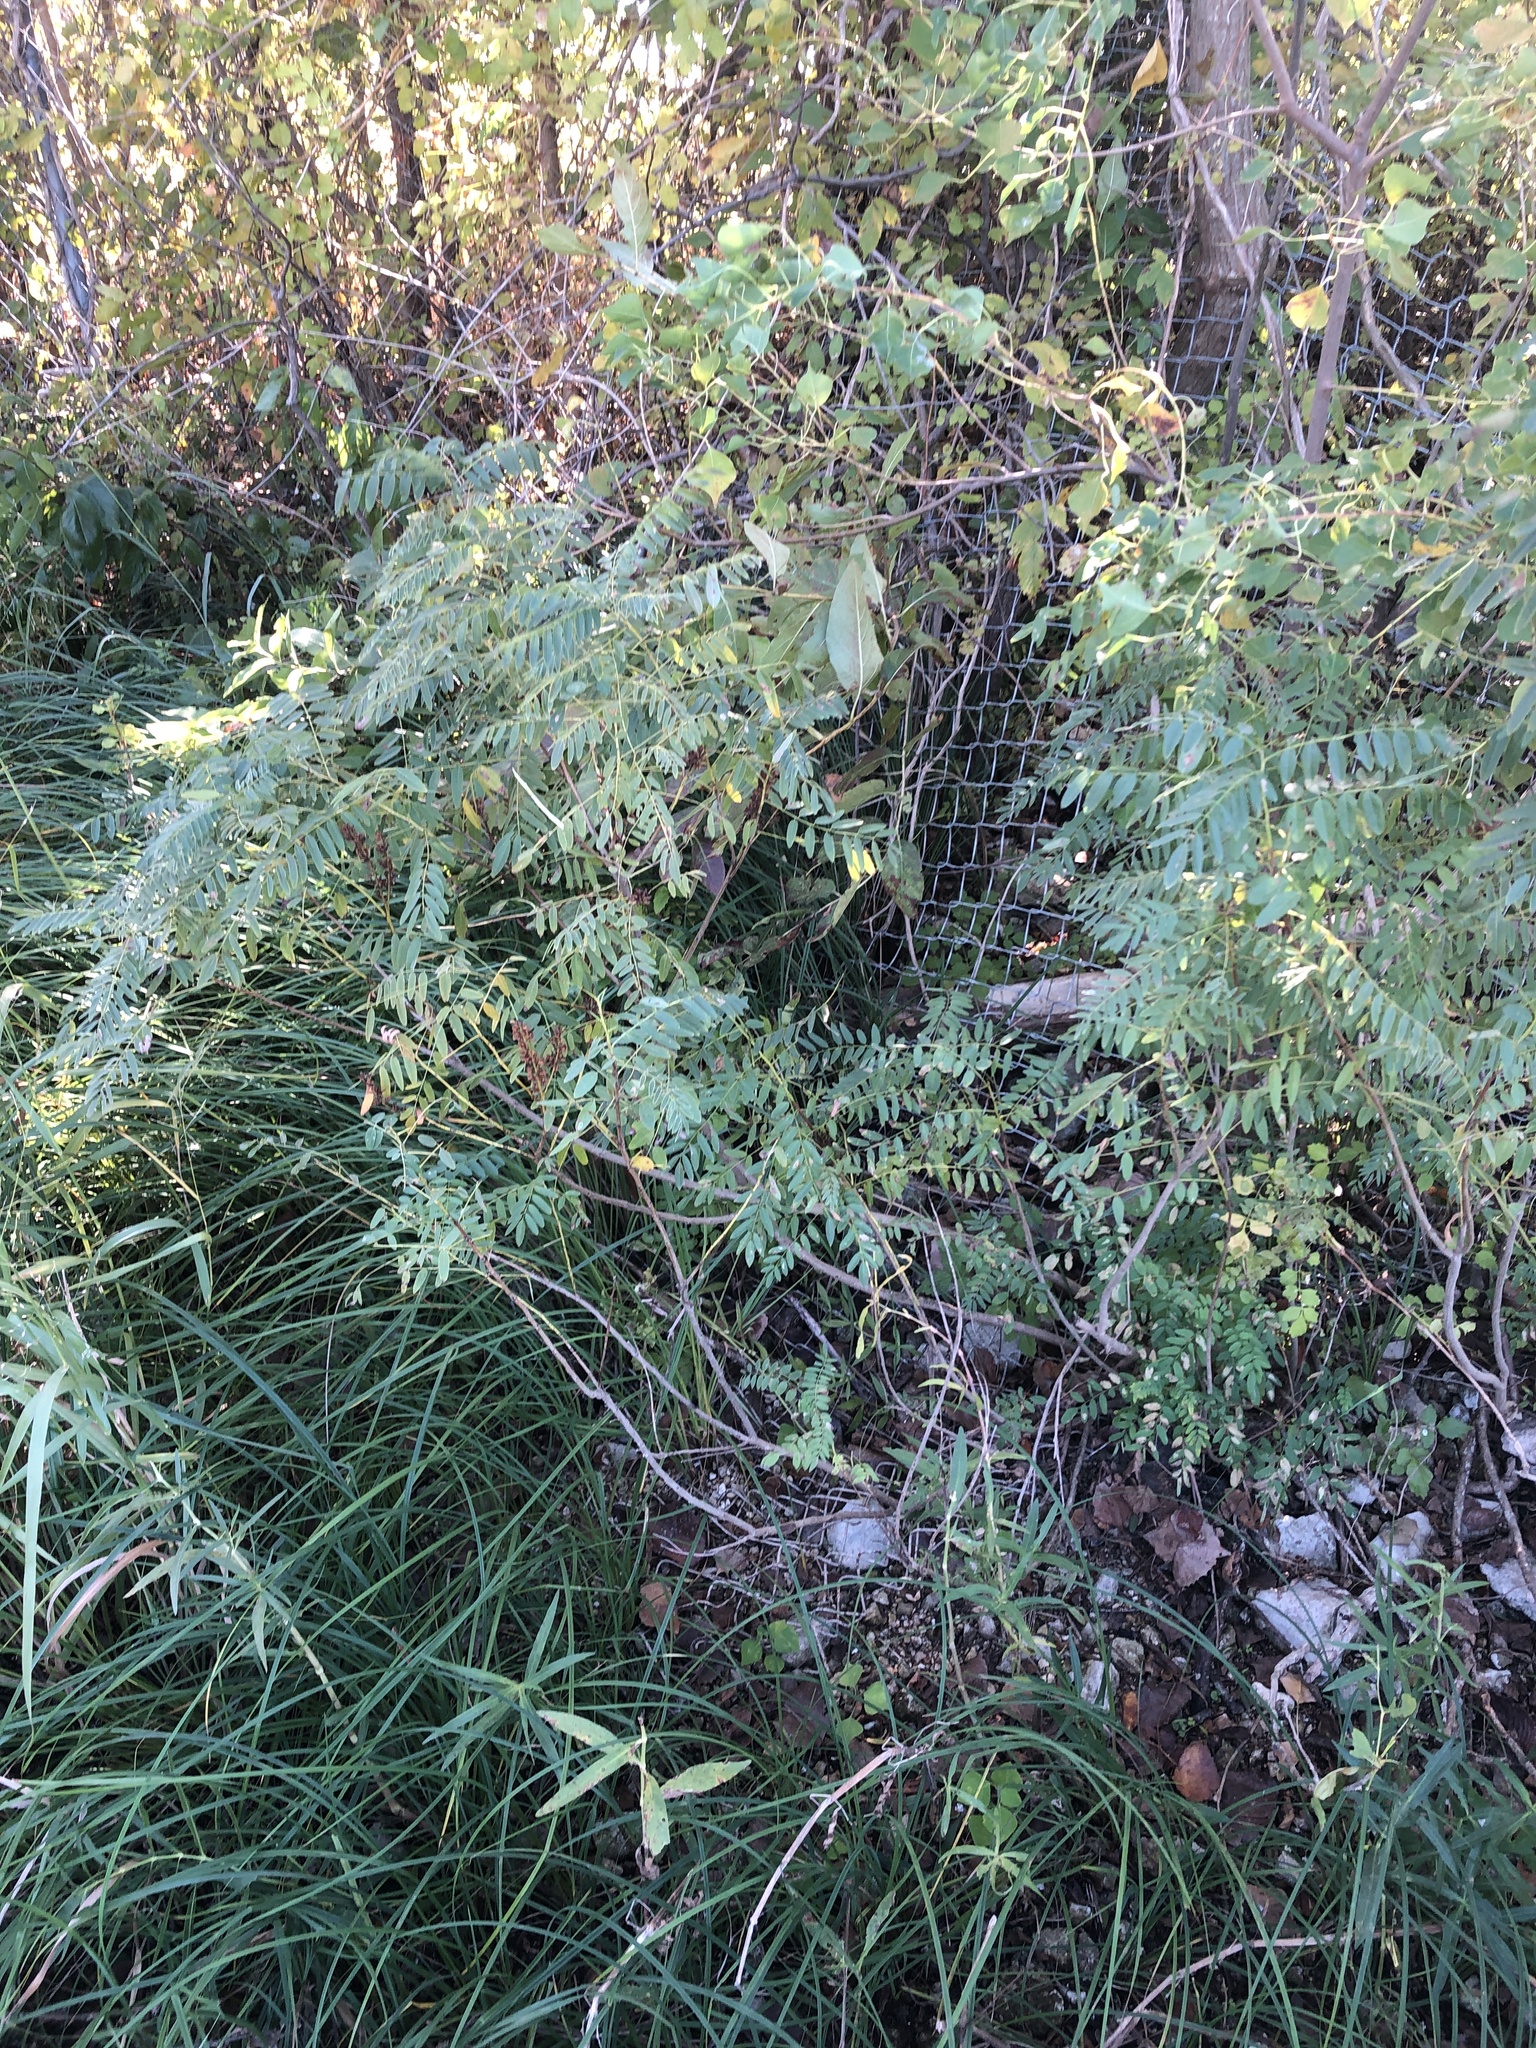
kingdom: Plantae
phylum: Tracheophyta
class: Magnoliopsida
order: Fabales
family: Fabaceae
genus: Amorpha
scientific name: Amorpha fruticosa
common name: False indigo
